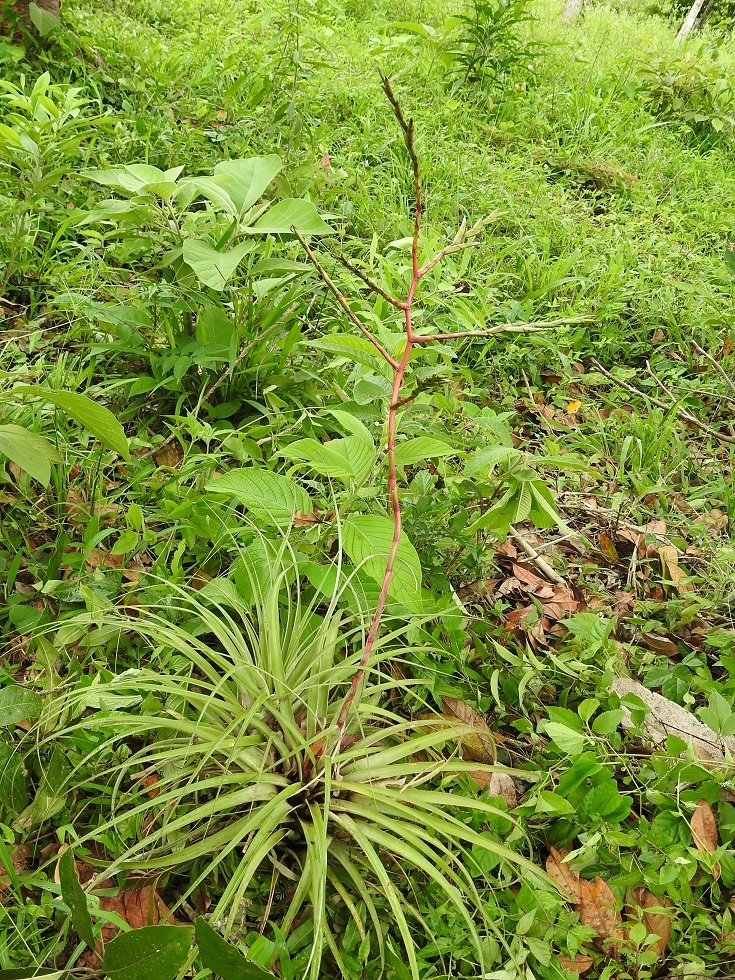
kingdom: Plantae
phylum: Tracheophyta
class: Liliopsida
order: Poales
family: Bromeliaceae
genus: Tillandsia
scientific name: Tillandsia limbata
